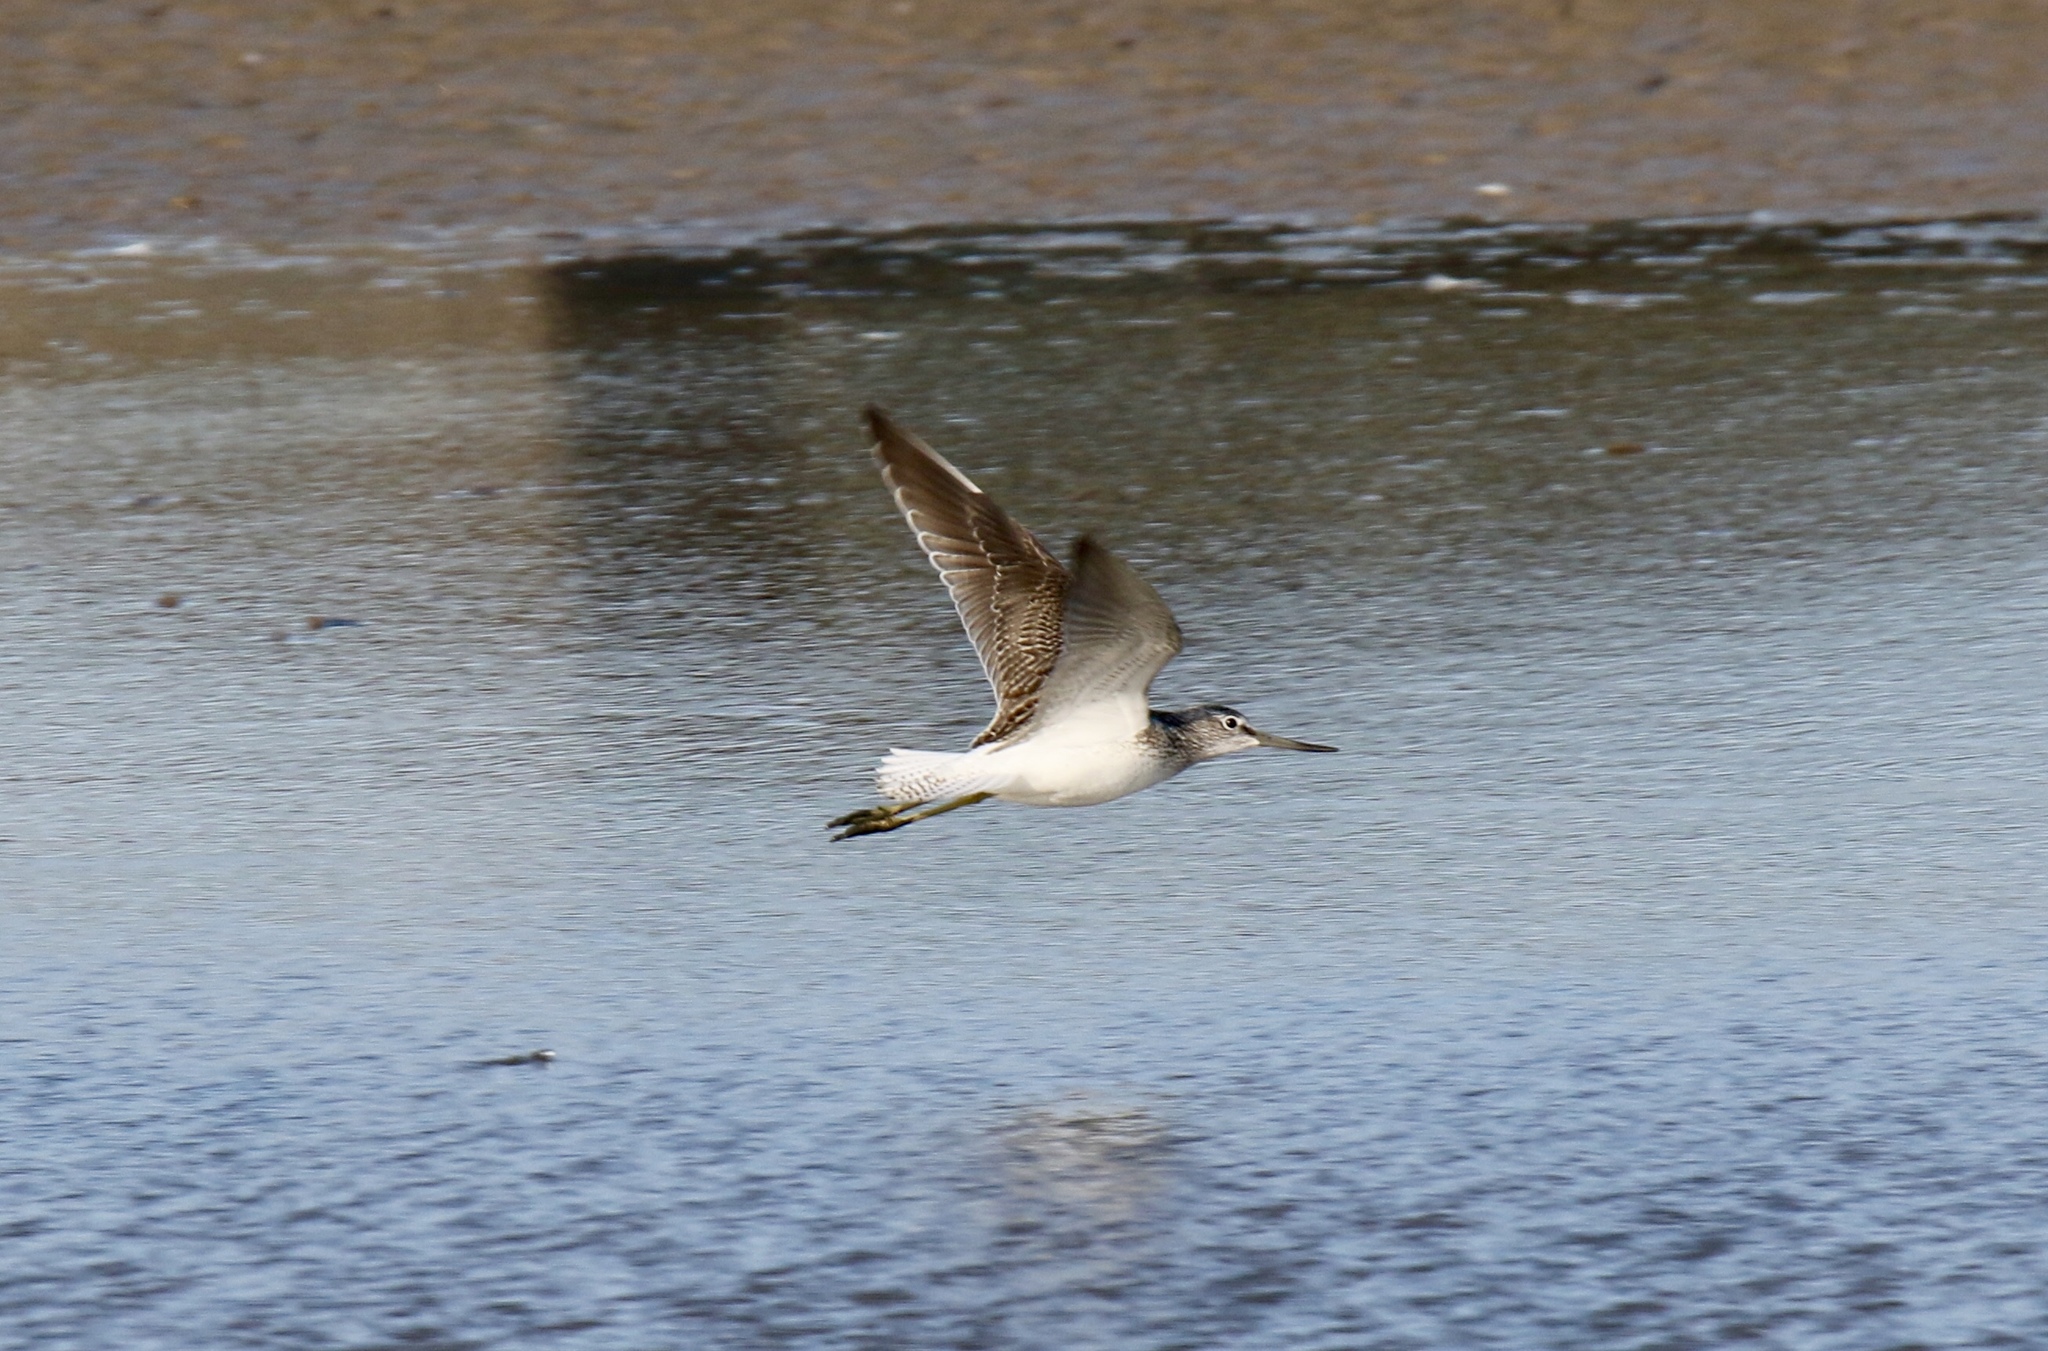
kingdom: Animalia
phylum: Chordata
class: Aves
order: Charadriiformes
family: Scolopacidae
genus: Tringa
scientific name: Tringa nebularia
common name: Common greenshank
